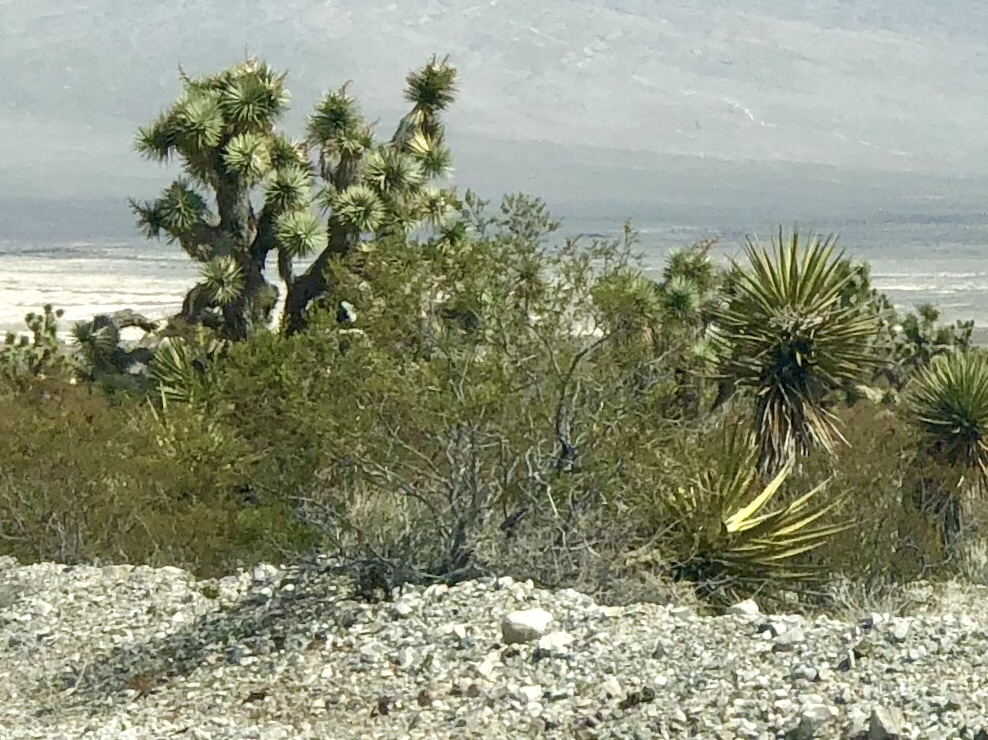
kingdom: Plantae
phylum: Tracheophyta
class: Magnoliopsida
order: Zygophyllales
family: Zygophyllaceae
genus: Larrea
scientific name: Larrea tridentata
